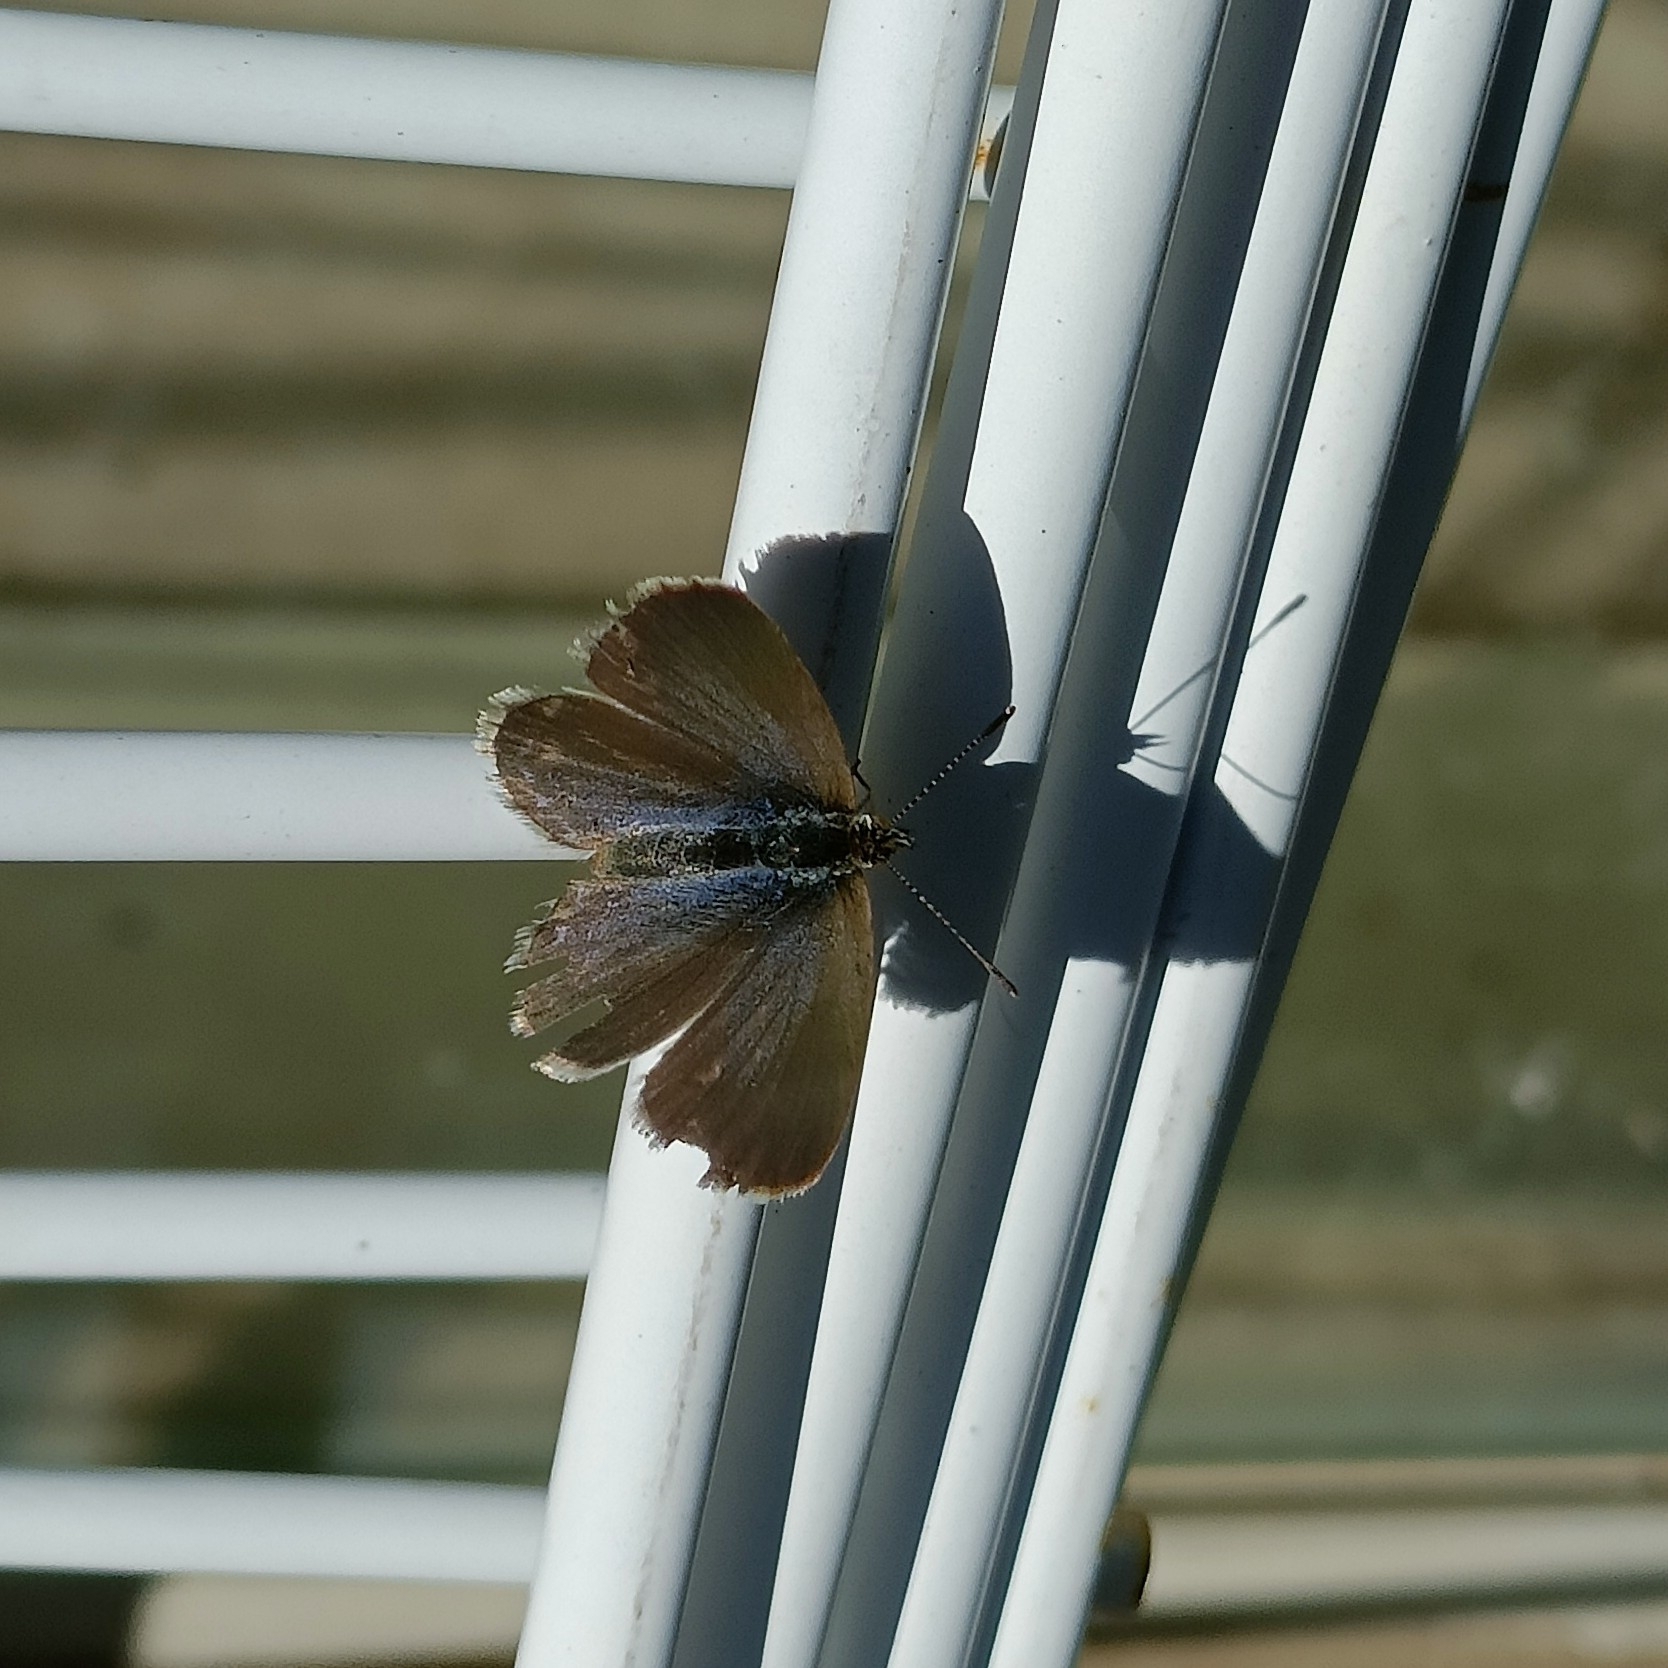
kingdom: Animalia
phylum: Arthropoda
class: Insecta
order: Lepidoptera
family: Lycaenidae
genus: Zizina
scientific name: Zizina otis
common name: Lesser grass blue
